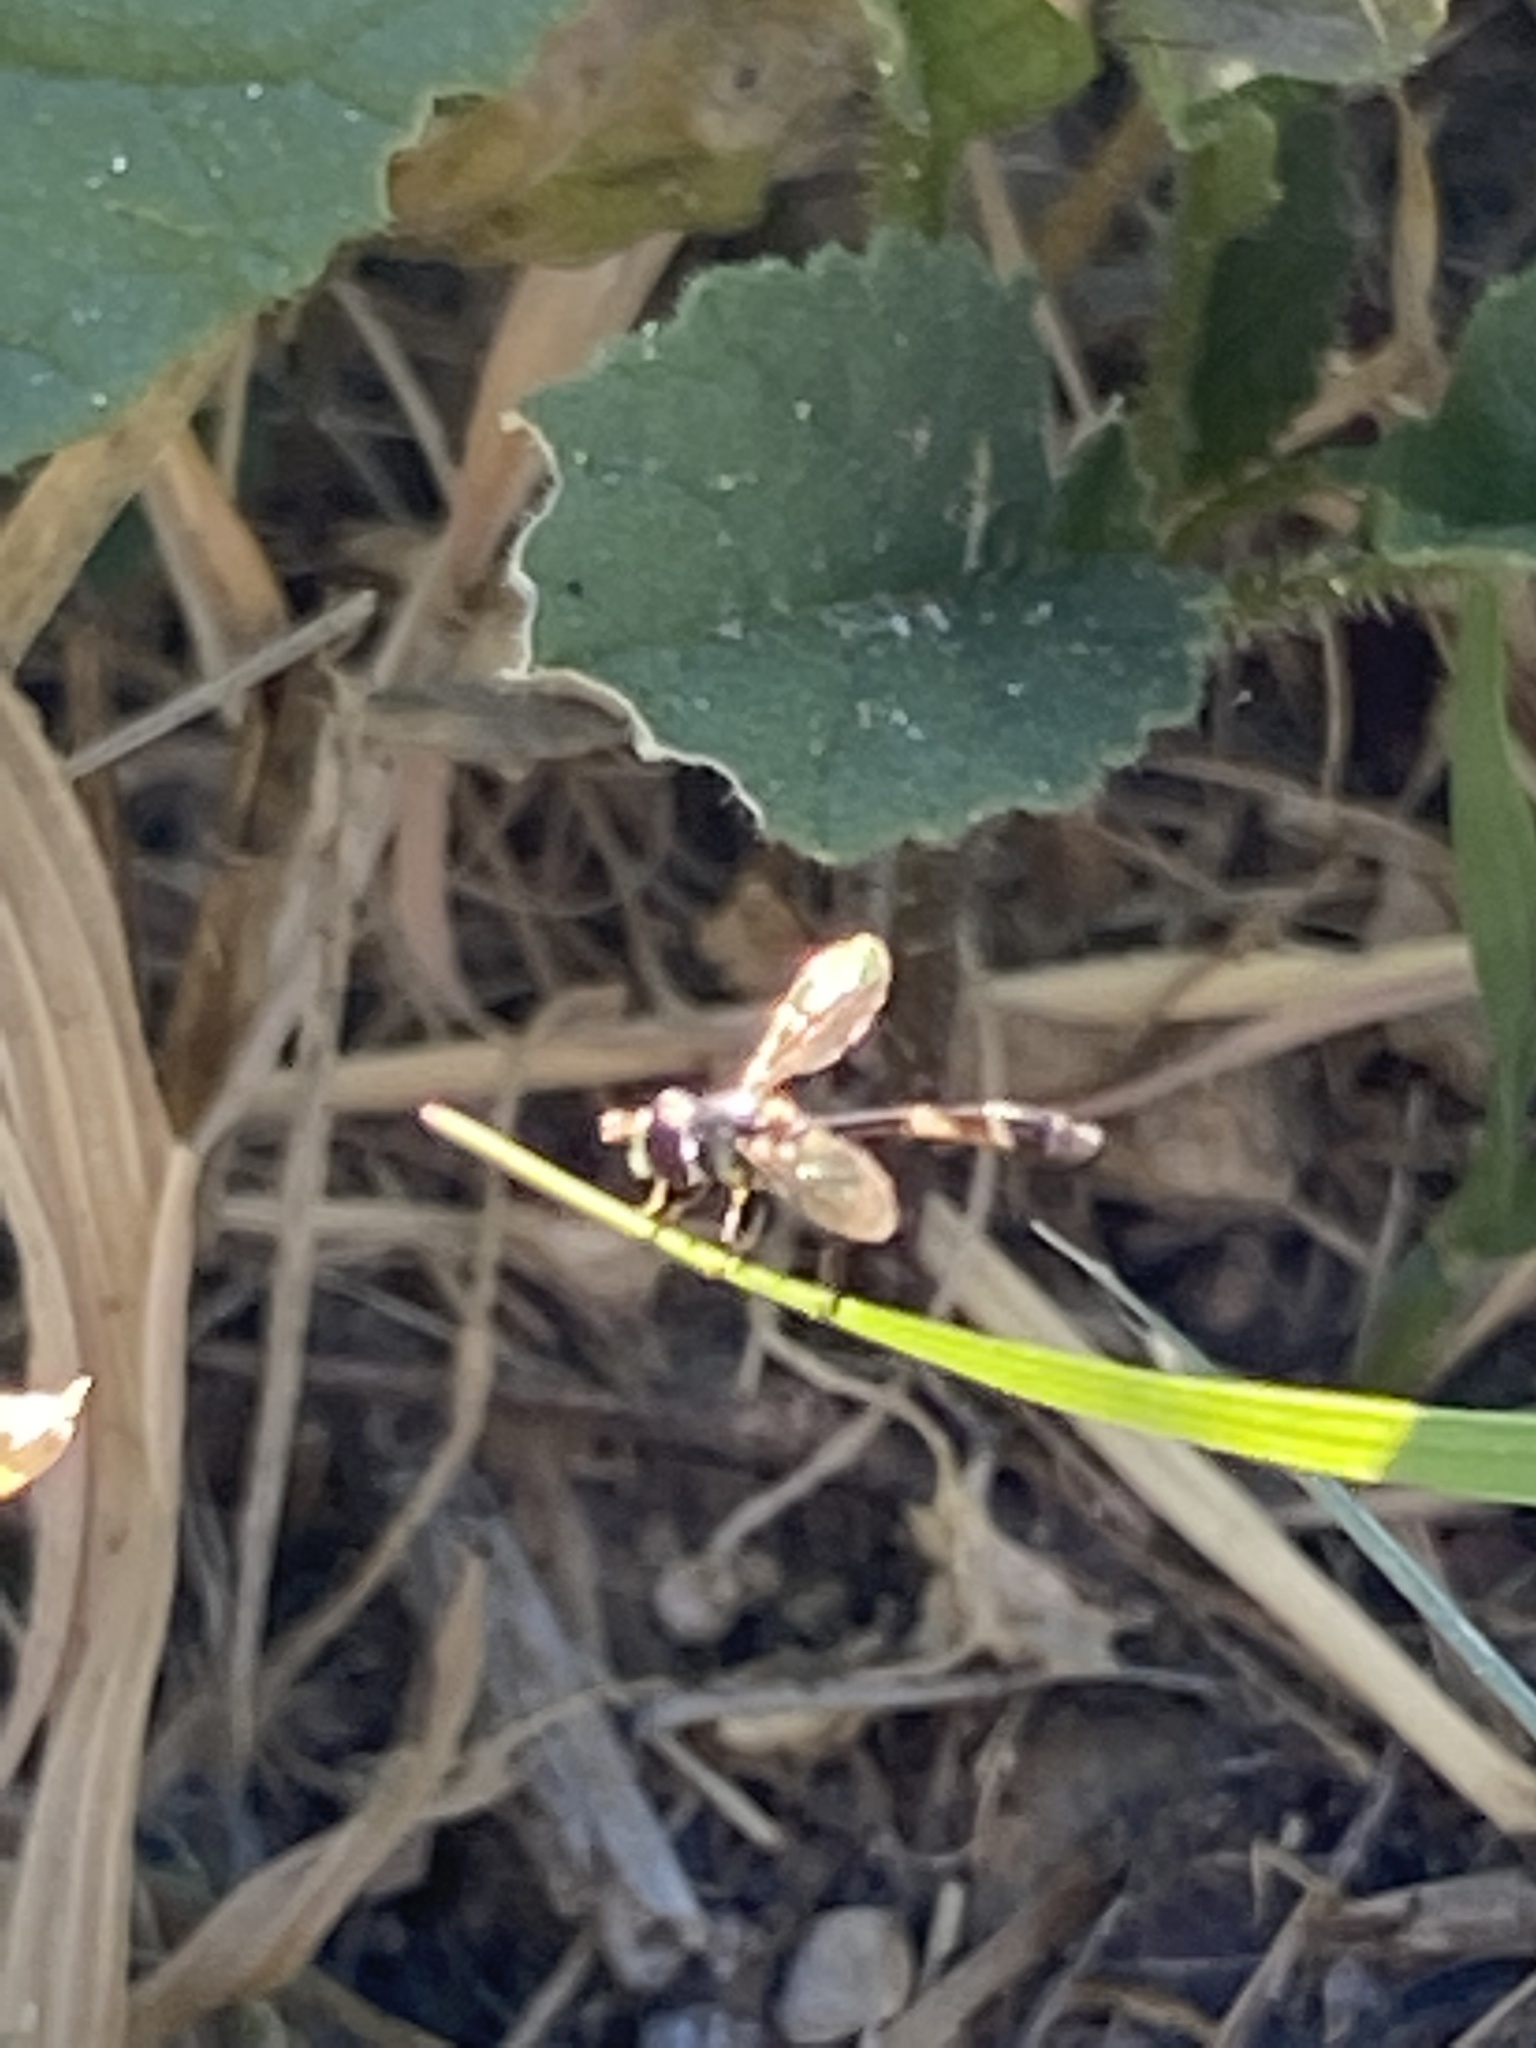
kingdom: Animalia
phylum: Arthropoda
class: Insecta
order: Diptera
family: Syrphidae
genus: Dioprosopa
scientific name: Dioprosopa clavatus
